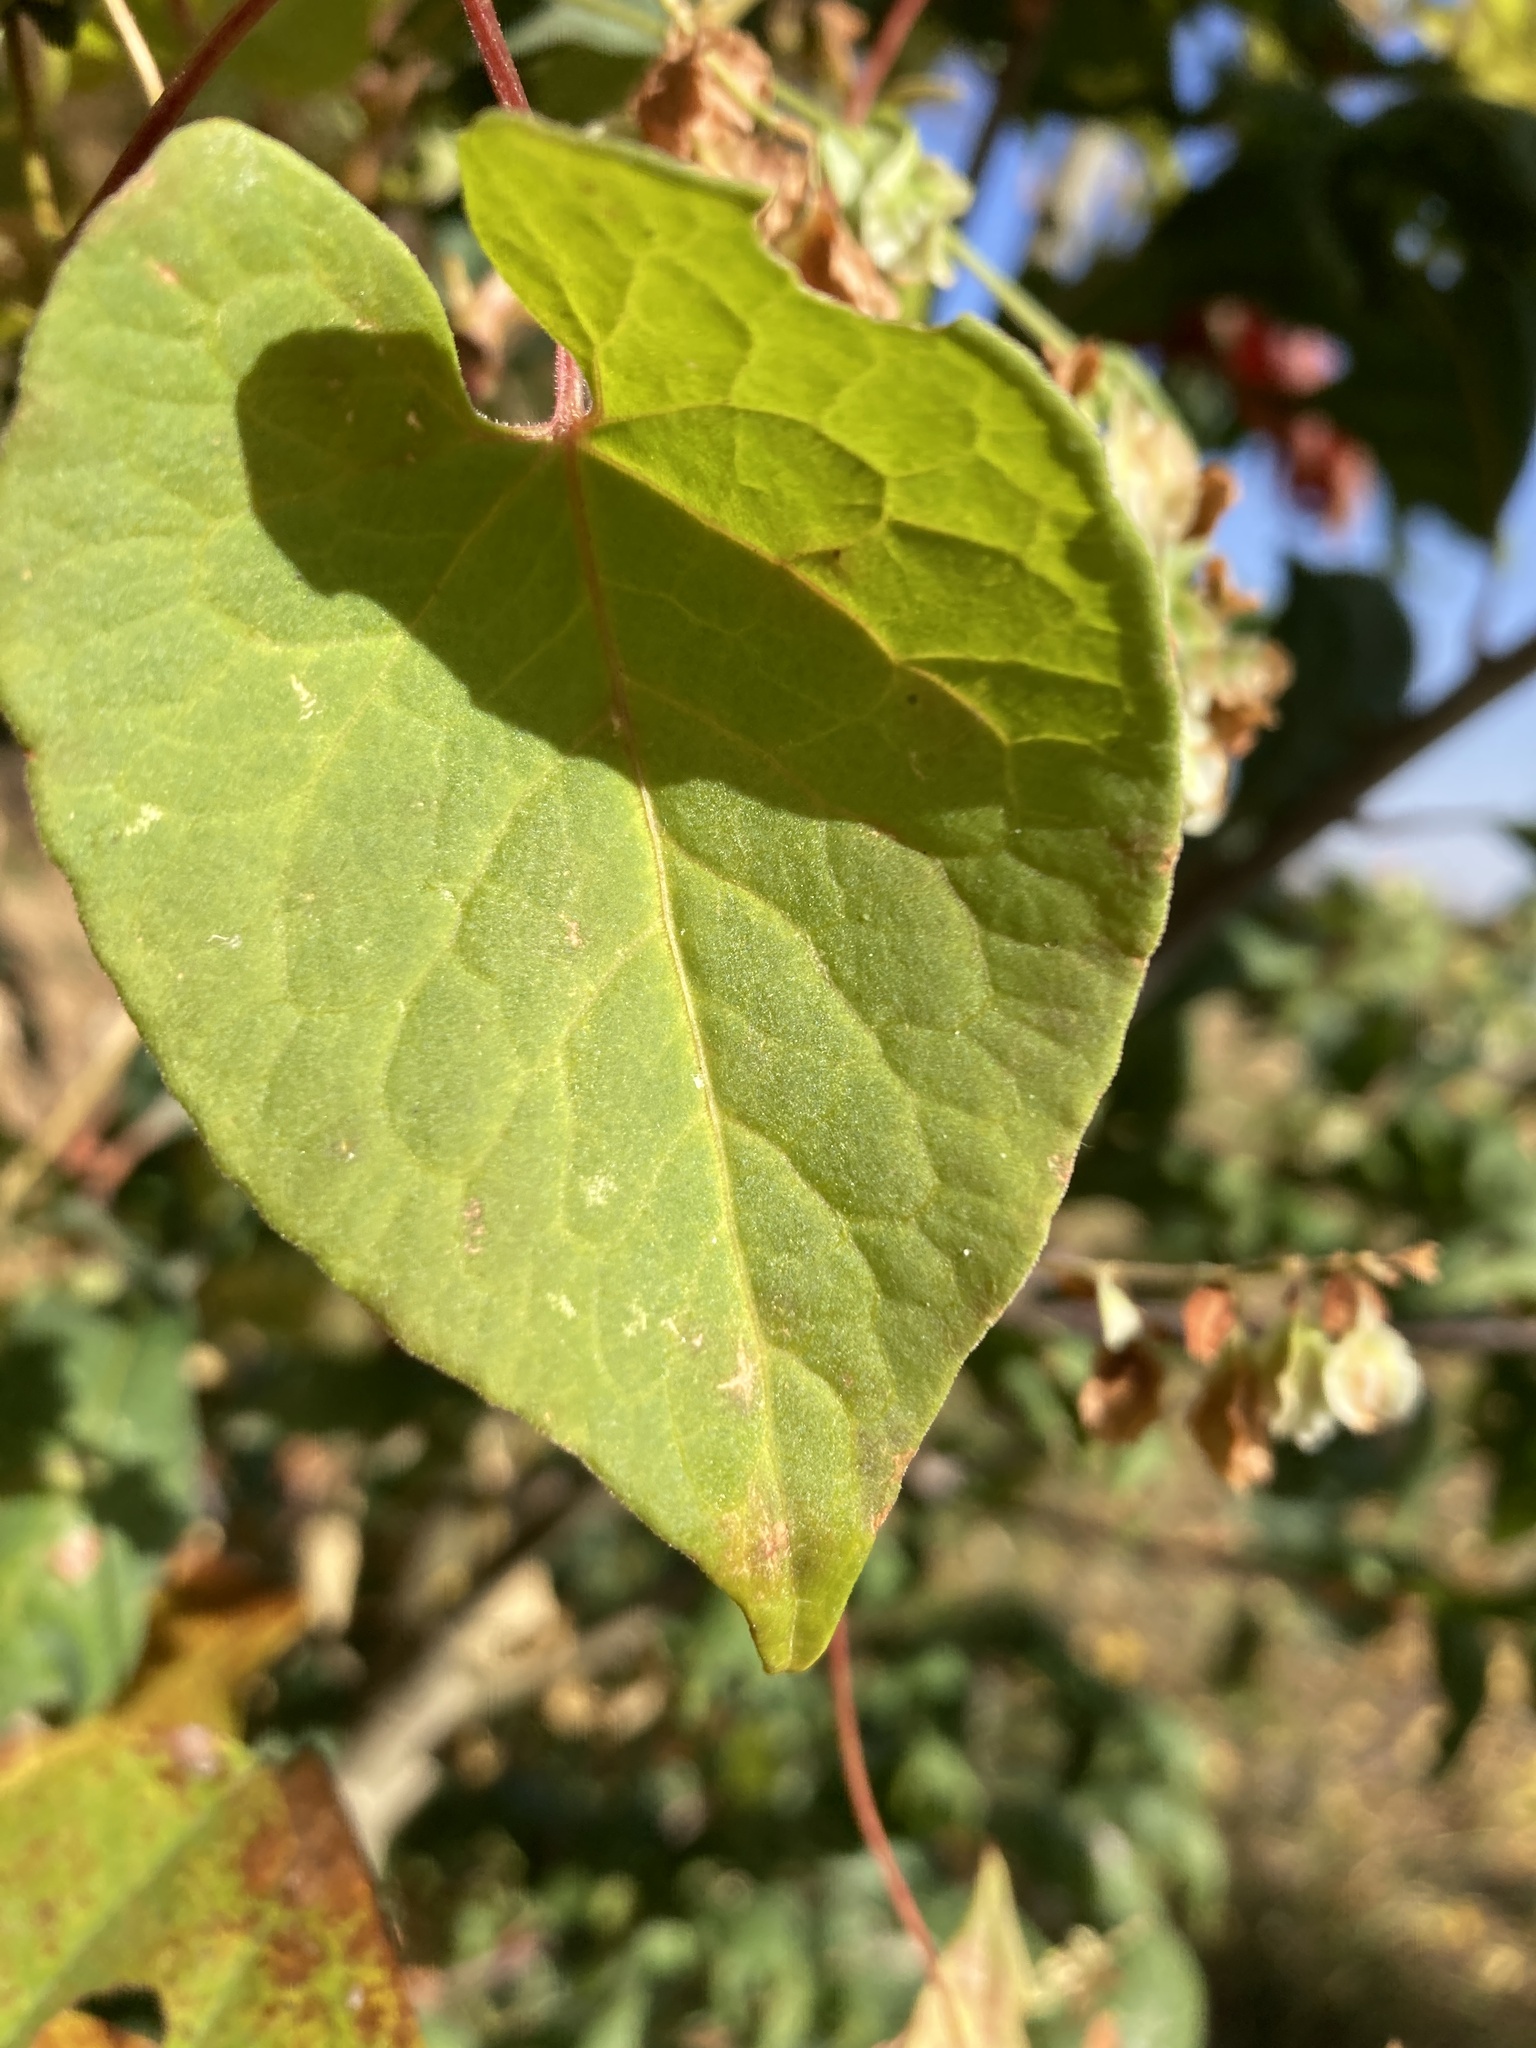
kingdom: Plantae
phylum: Tracheophyta
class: Magnoliopsida
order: Caryophyllales
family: Polygonaceae
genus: Fallopia
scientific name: Fallopia scandens
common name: Climbing false buckwheat
